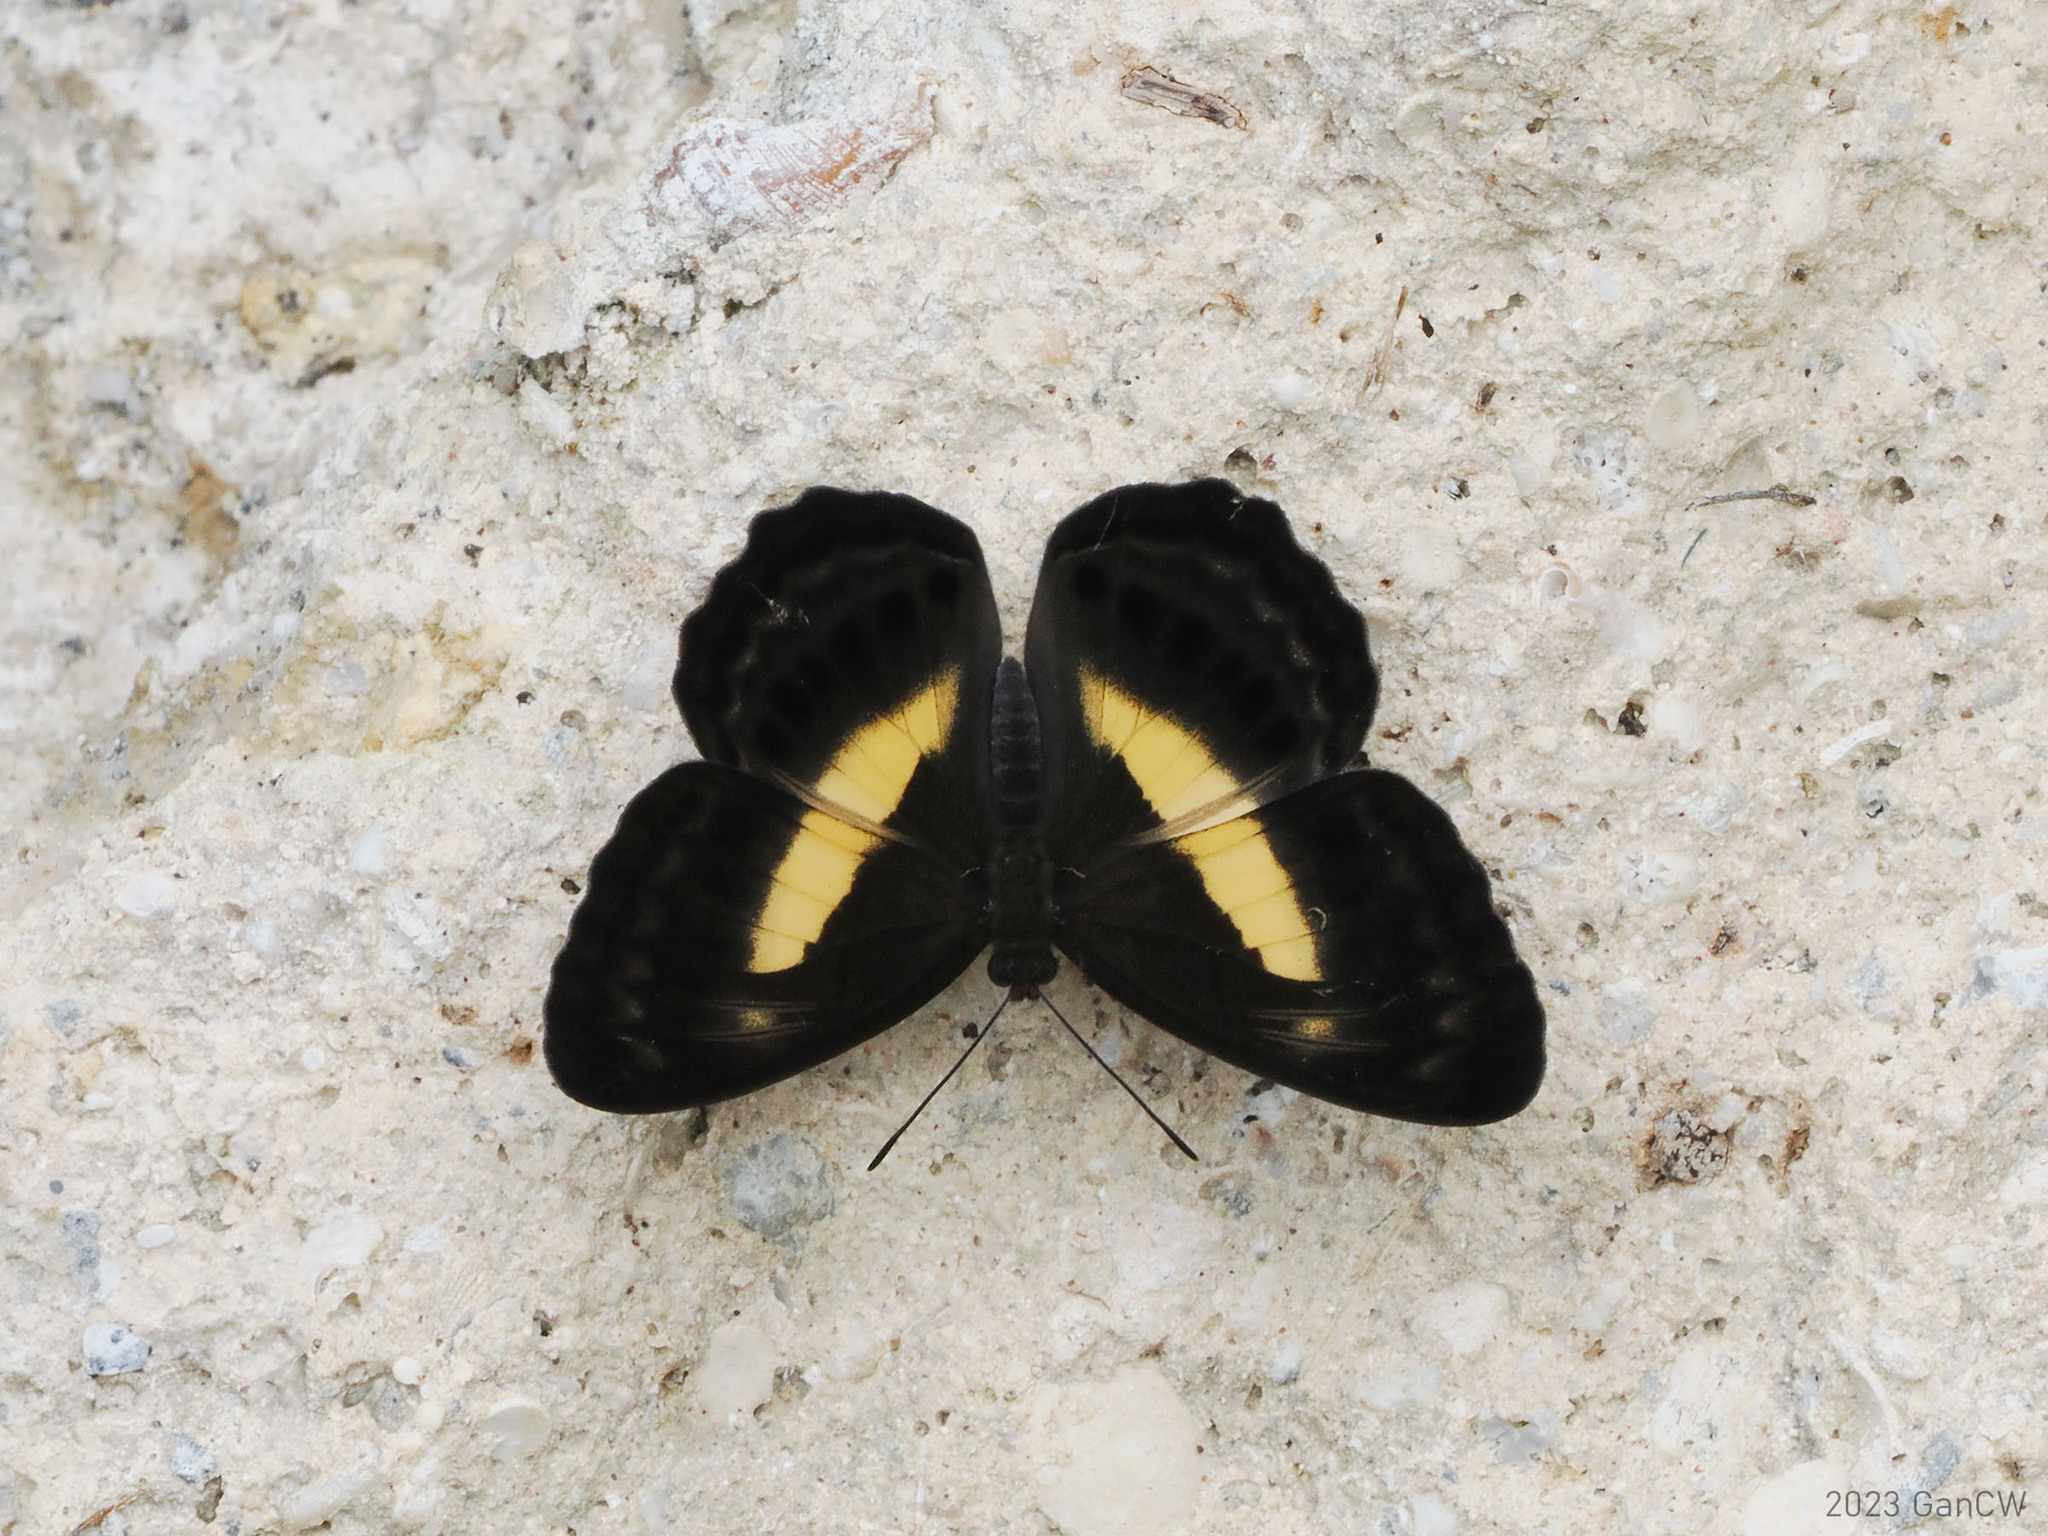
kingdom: Animalia
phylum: Arthropoda
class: Insecta
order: Lepidoptera
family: Nymphalidae
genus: Algia
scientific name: Algia
